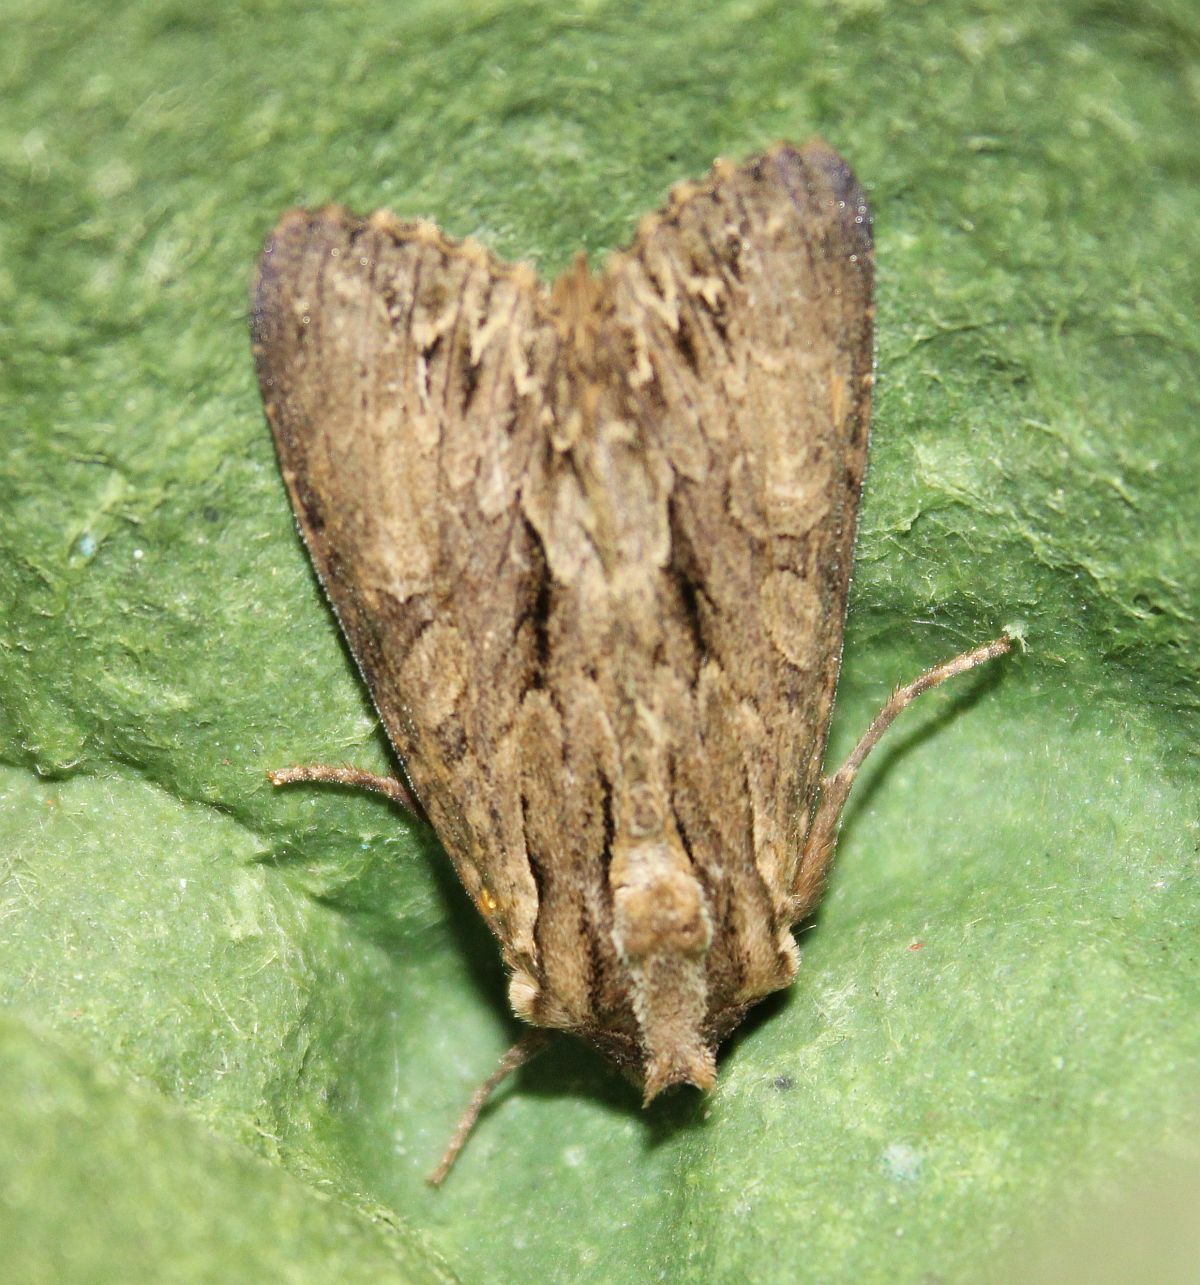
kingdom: Animalia
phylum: Arthropoda
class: Insecta
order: Lepidoptera
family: Noctuidae
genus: Apamea
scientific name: Apamea monoglypha
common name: Dark arches
